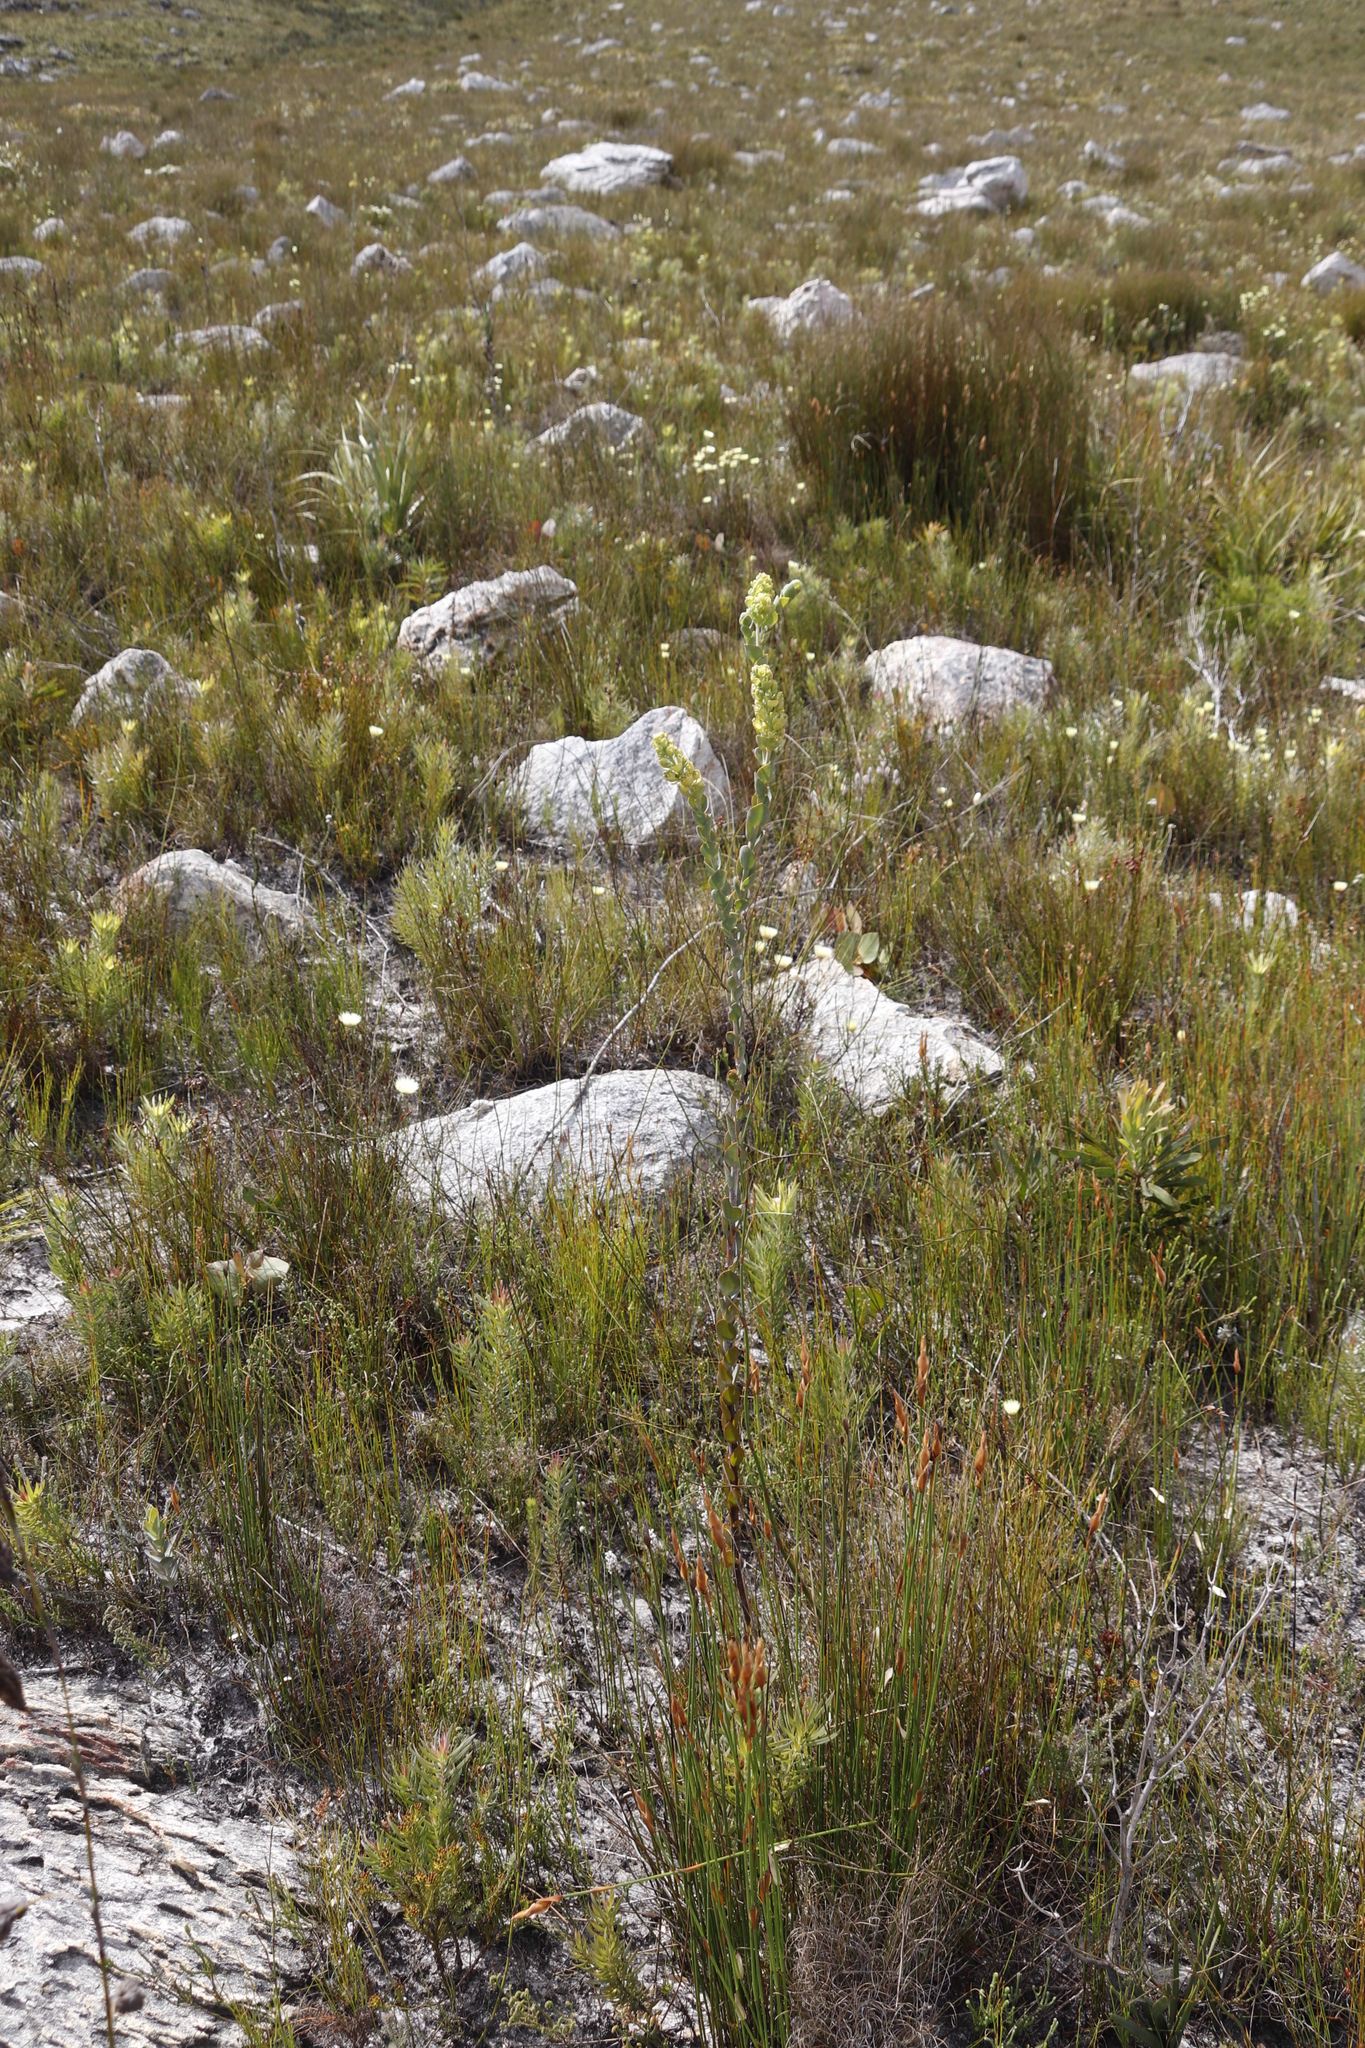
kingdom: Plantae
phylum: Tracheophyta
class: Magnoliopsida
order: Santalales
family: Thesiaceae
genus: Thesium
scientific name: Thesium euphorbioides
